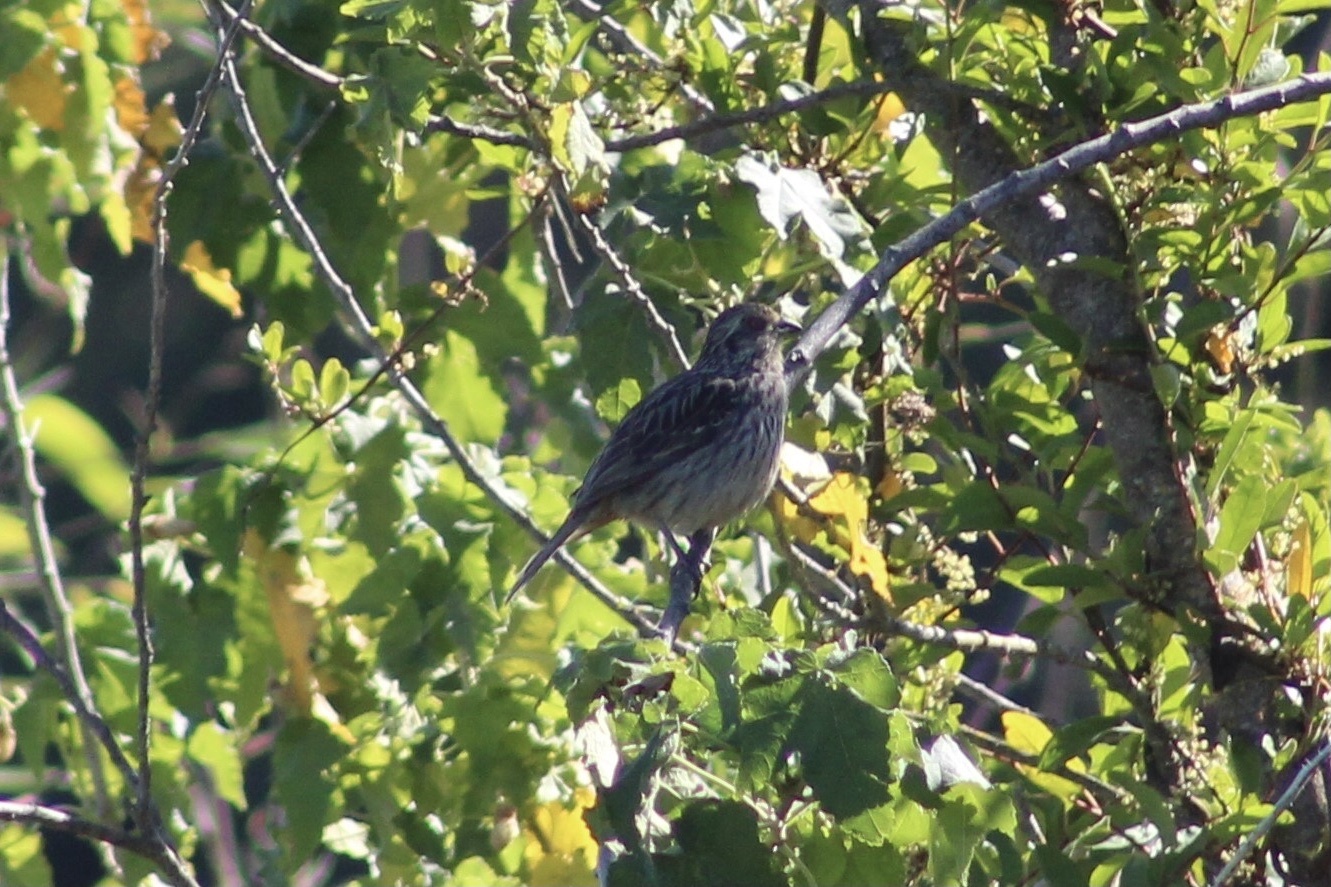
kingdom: Animalia
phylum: Chordata
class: Aves
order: Passeriformes
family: Cotingidae
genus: Phytotoma
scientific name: Phytotoma rara
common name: Rufous-tailed plantcutter
